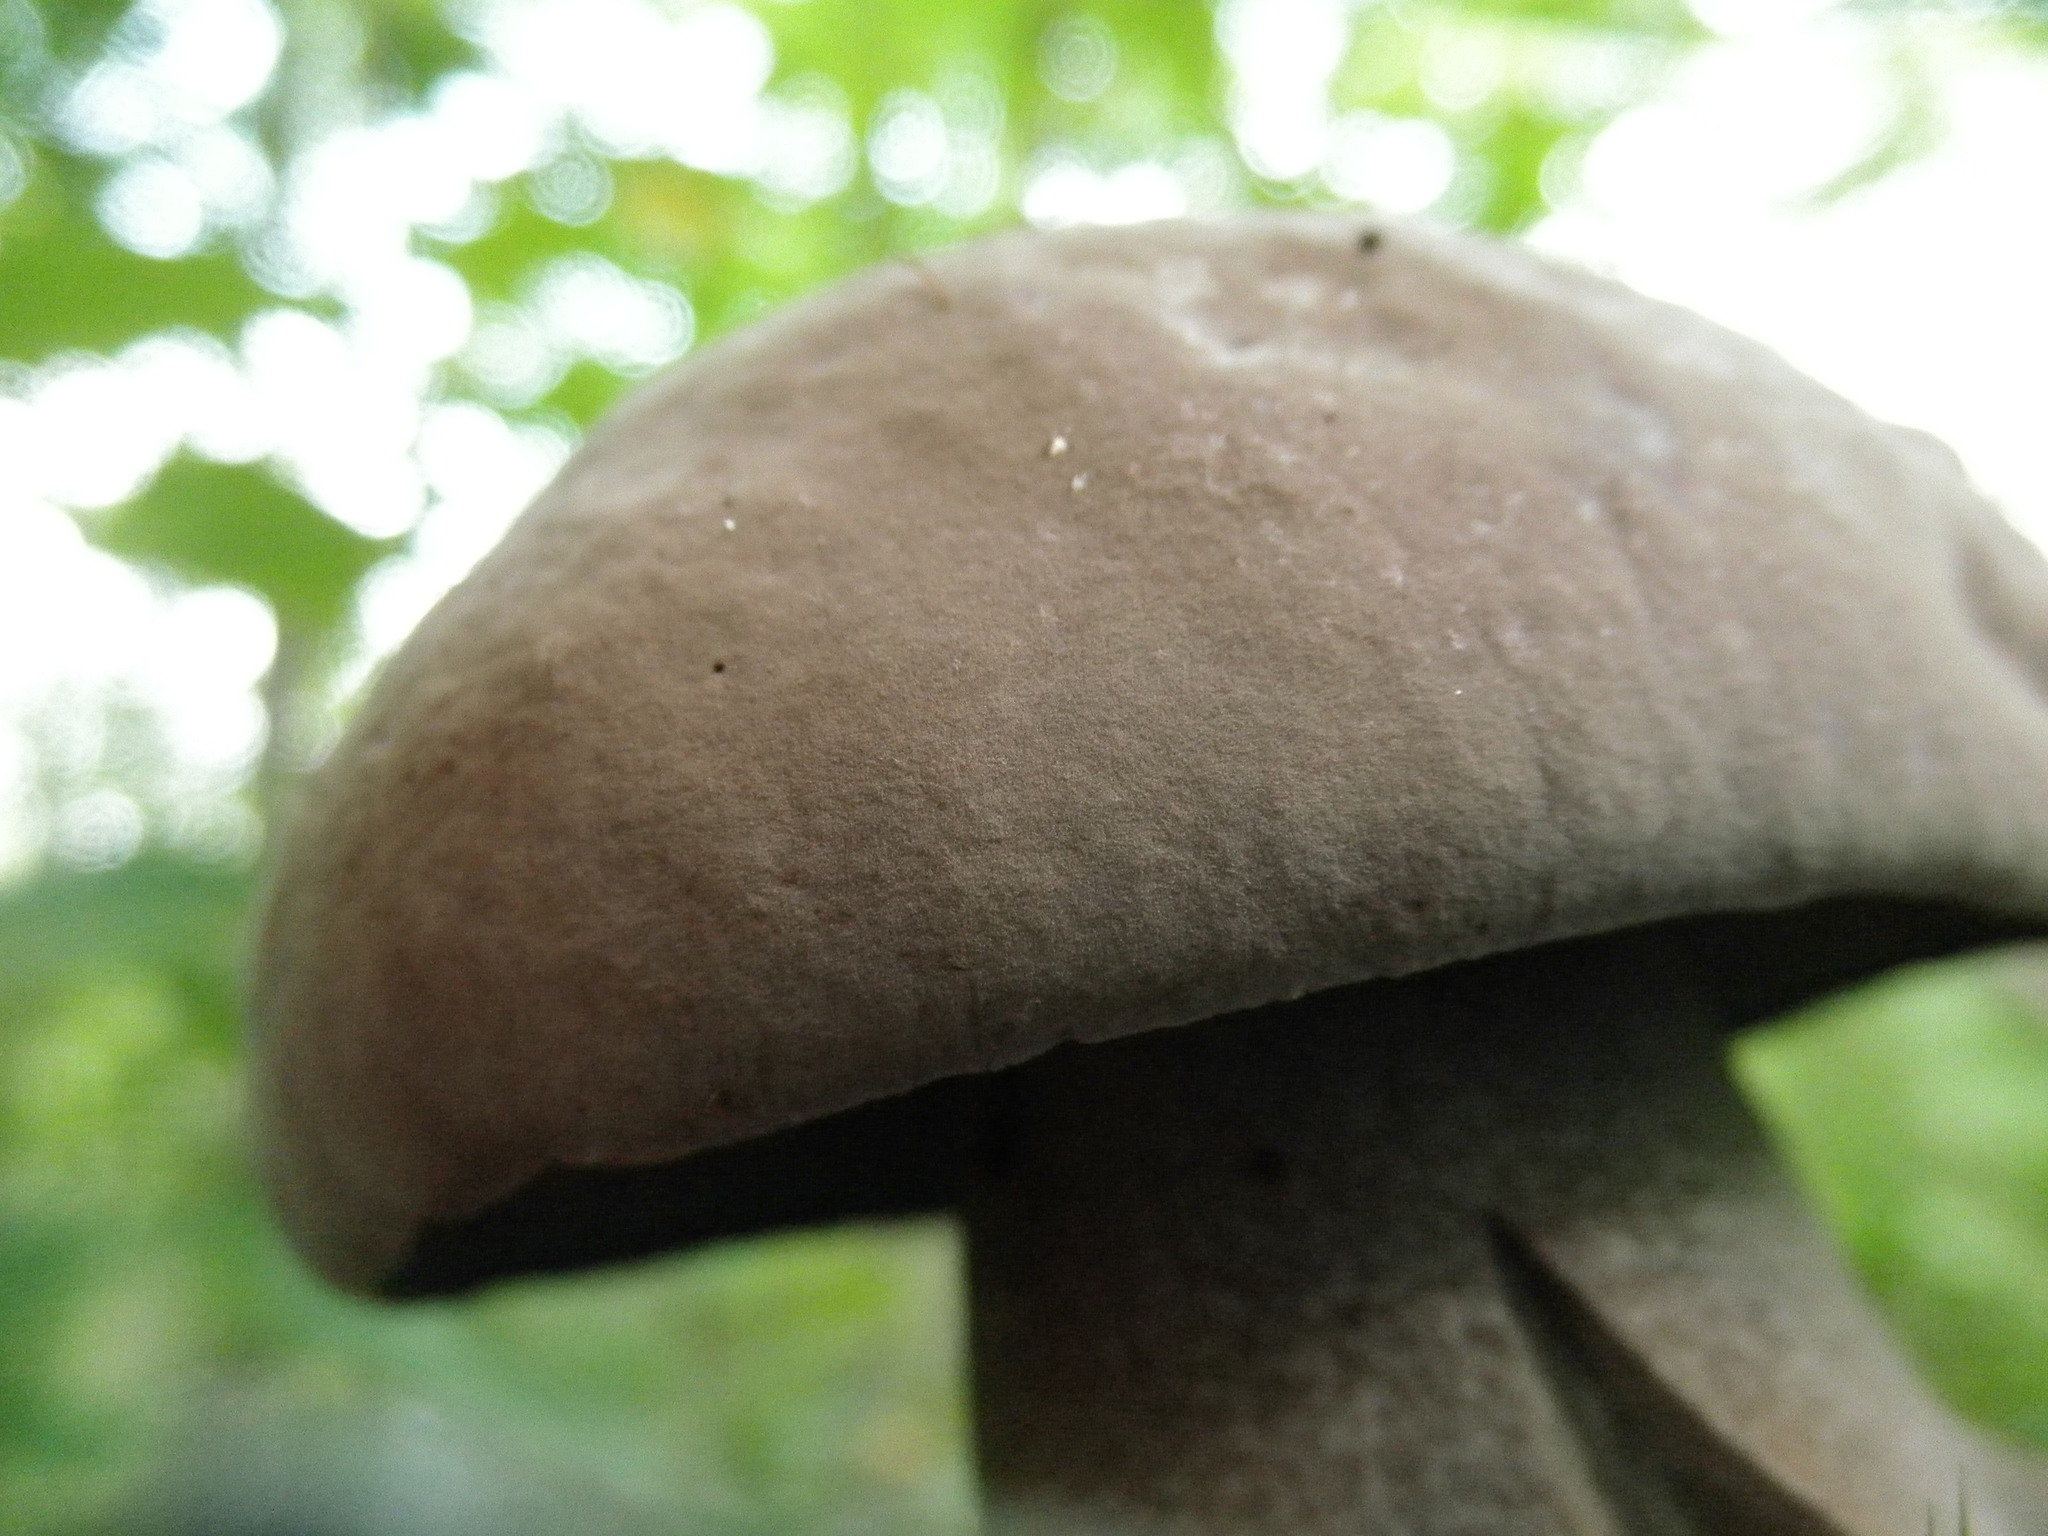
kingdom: Fungi
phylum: Basidiomycota
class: Agaricomycetes
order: Boletales
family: Boletaceae
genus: Sutorius
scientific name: Sutorius eximius
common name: Lilac-brown bolete
